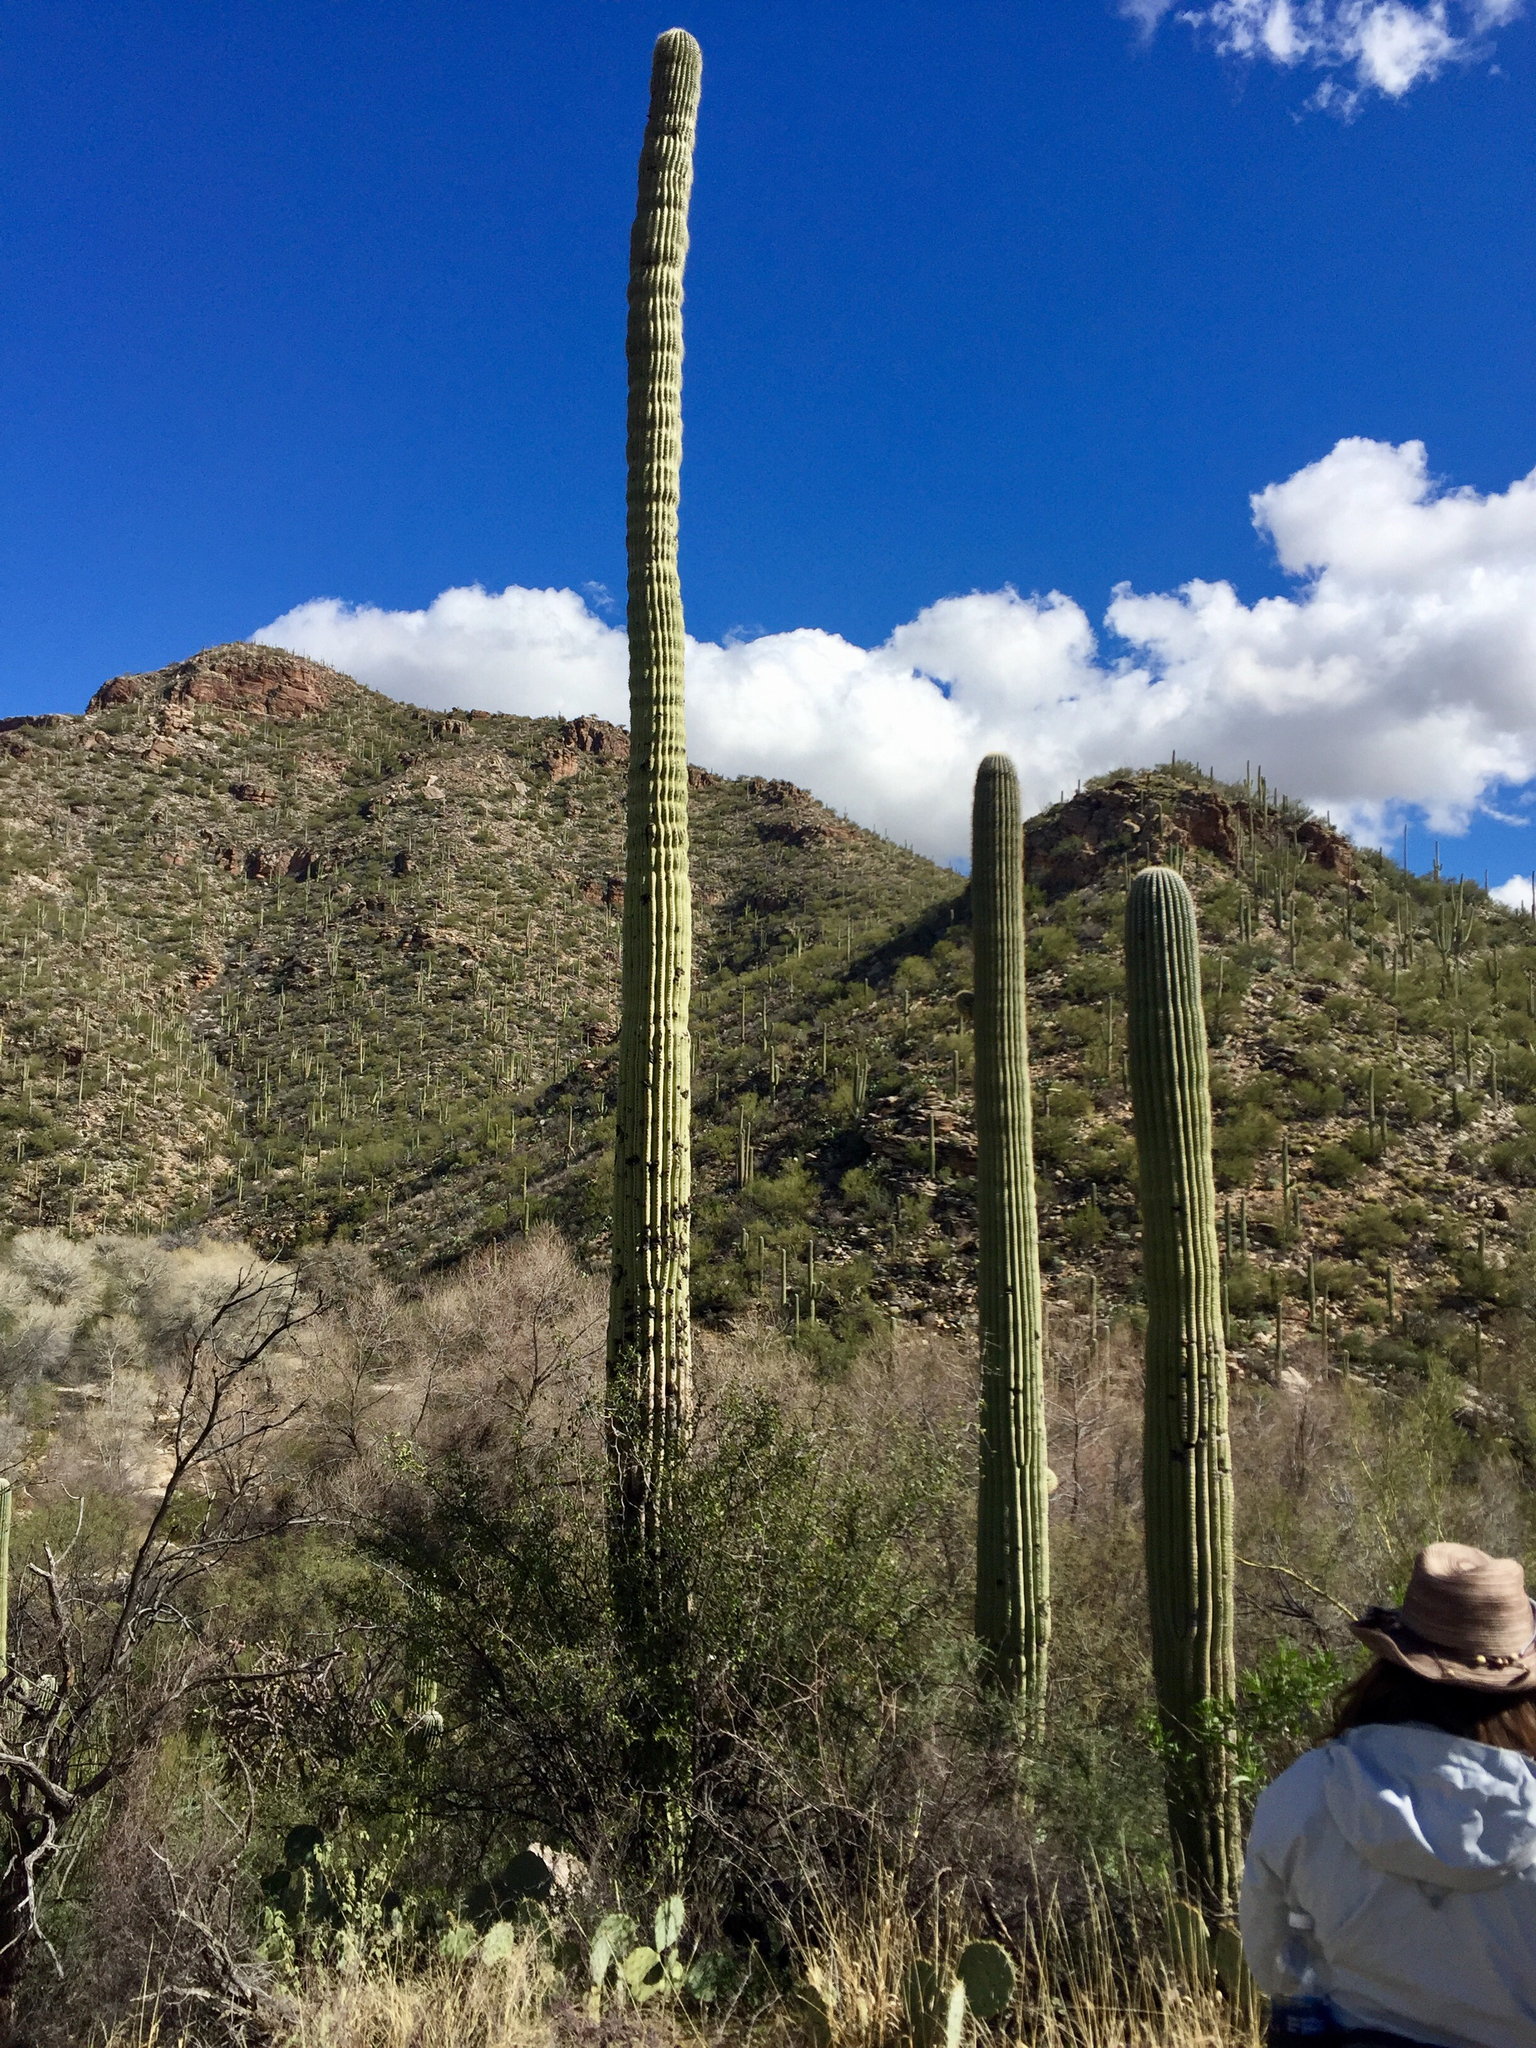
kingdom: Plantae
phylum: Tracheophyta
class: Magnoliopsida
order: Caryophyllales
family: Cactaceae
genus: Carnegiea
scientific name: Carnegiea gigantea
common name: Saguaro
